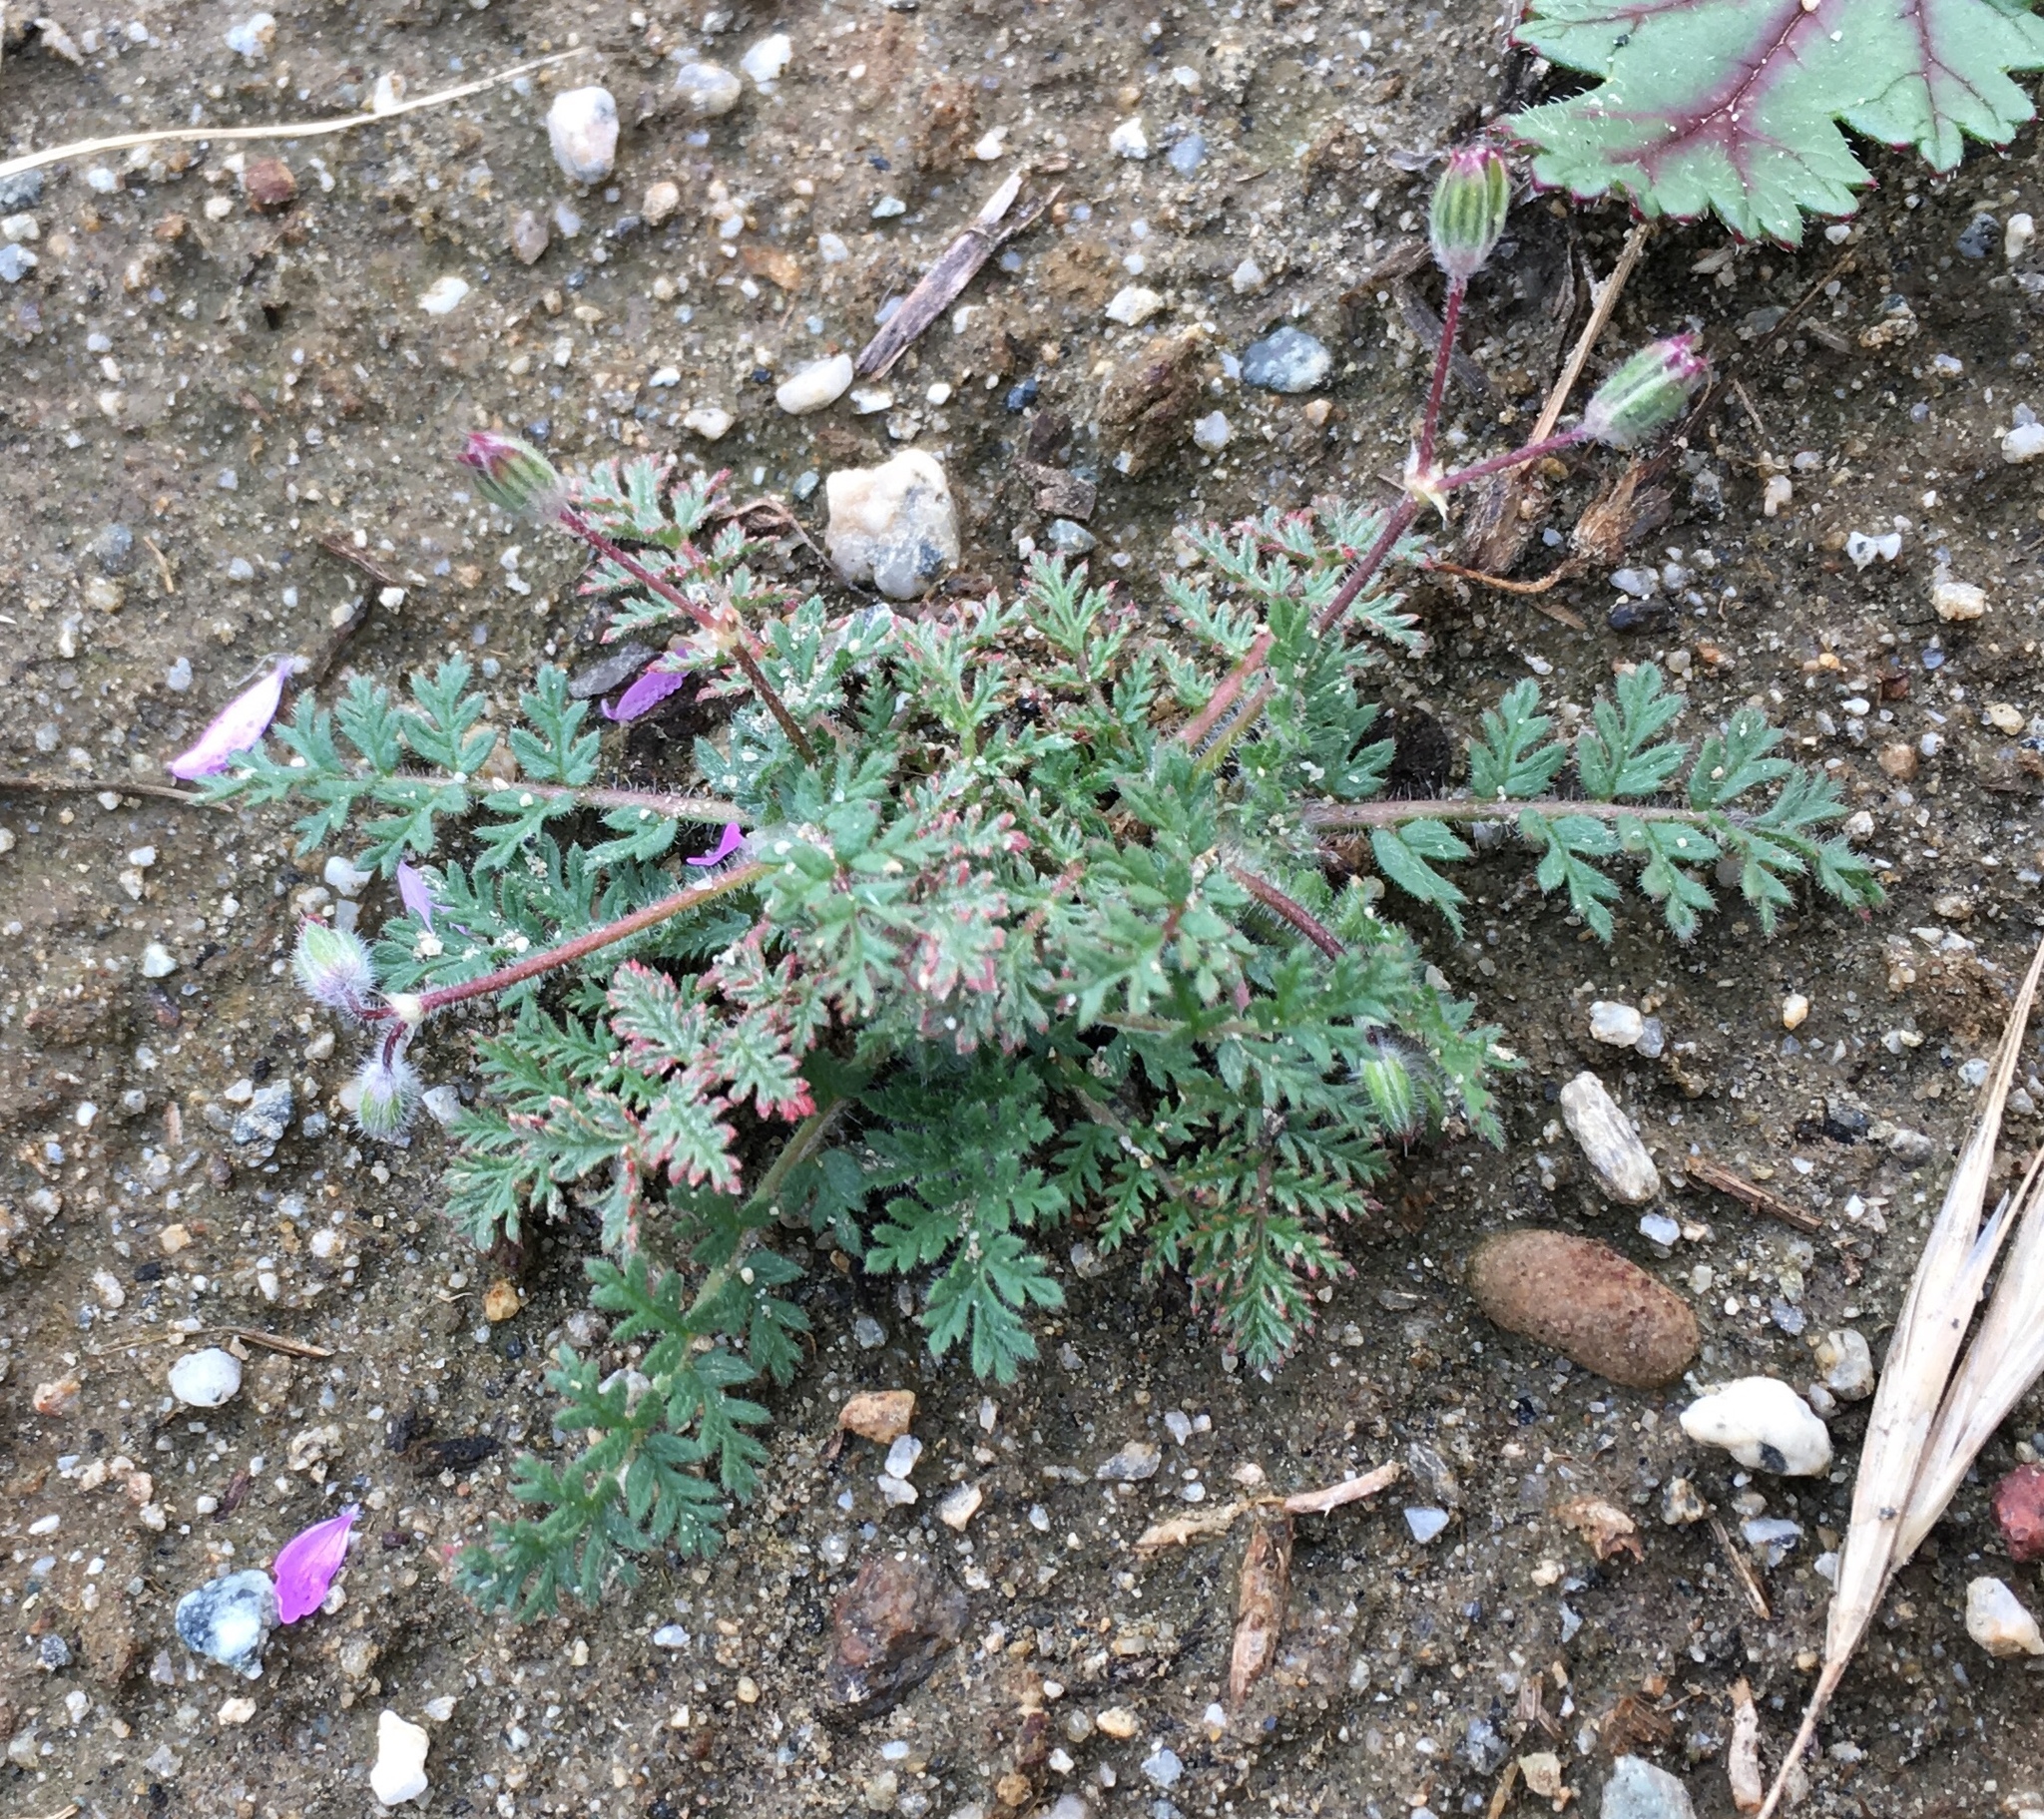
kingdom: Plantae
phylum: Tracheophyta
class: Magnoliopsida
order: Geraniales
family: Geraniaceae
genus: Erodium
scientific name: Erodium cicutarium
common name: Common stork's-bill
